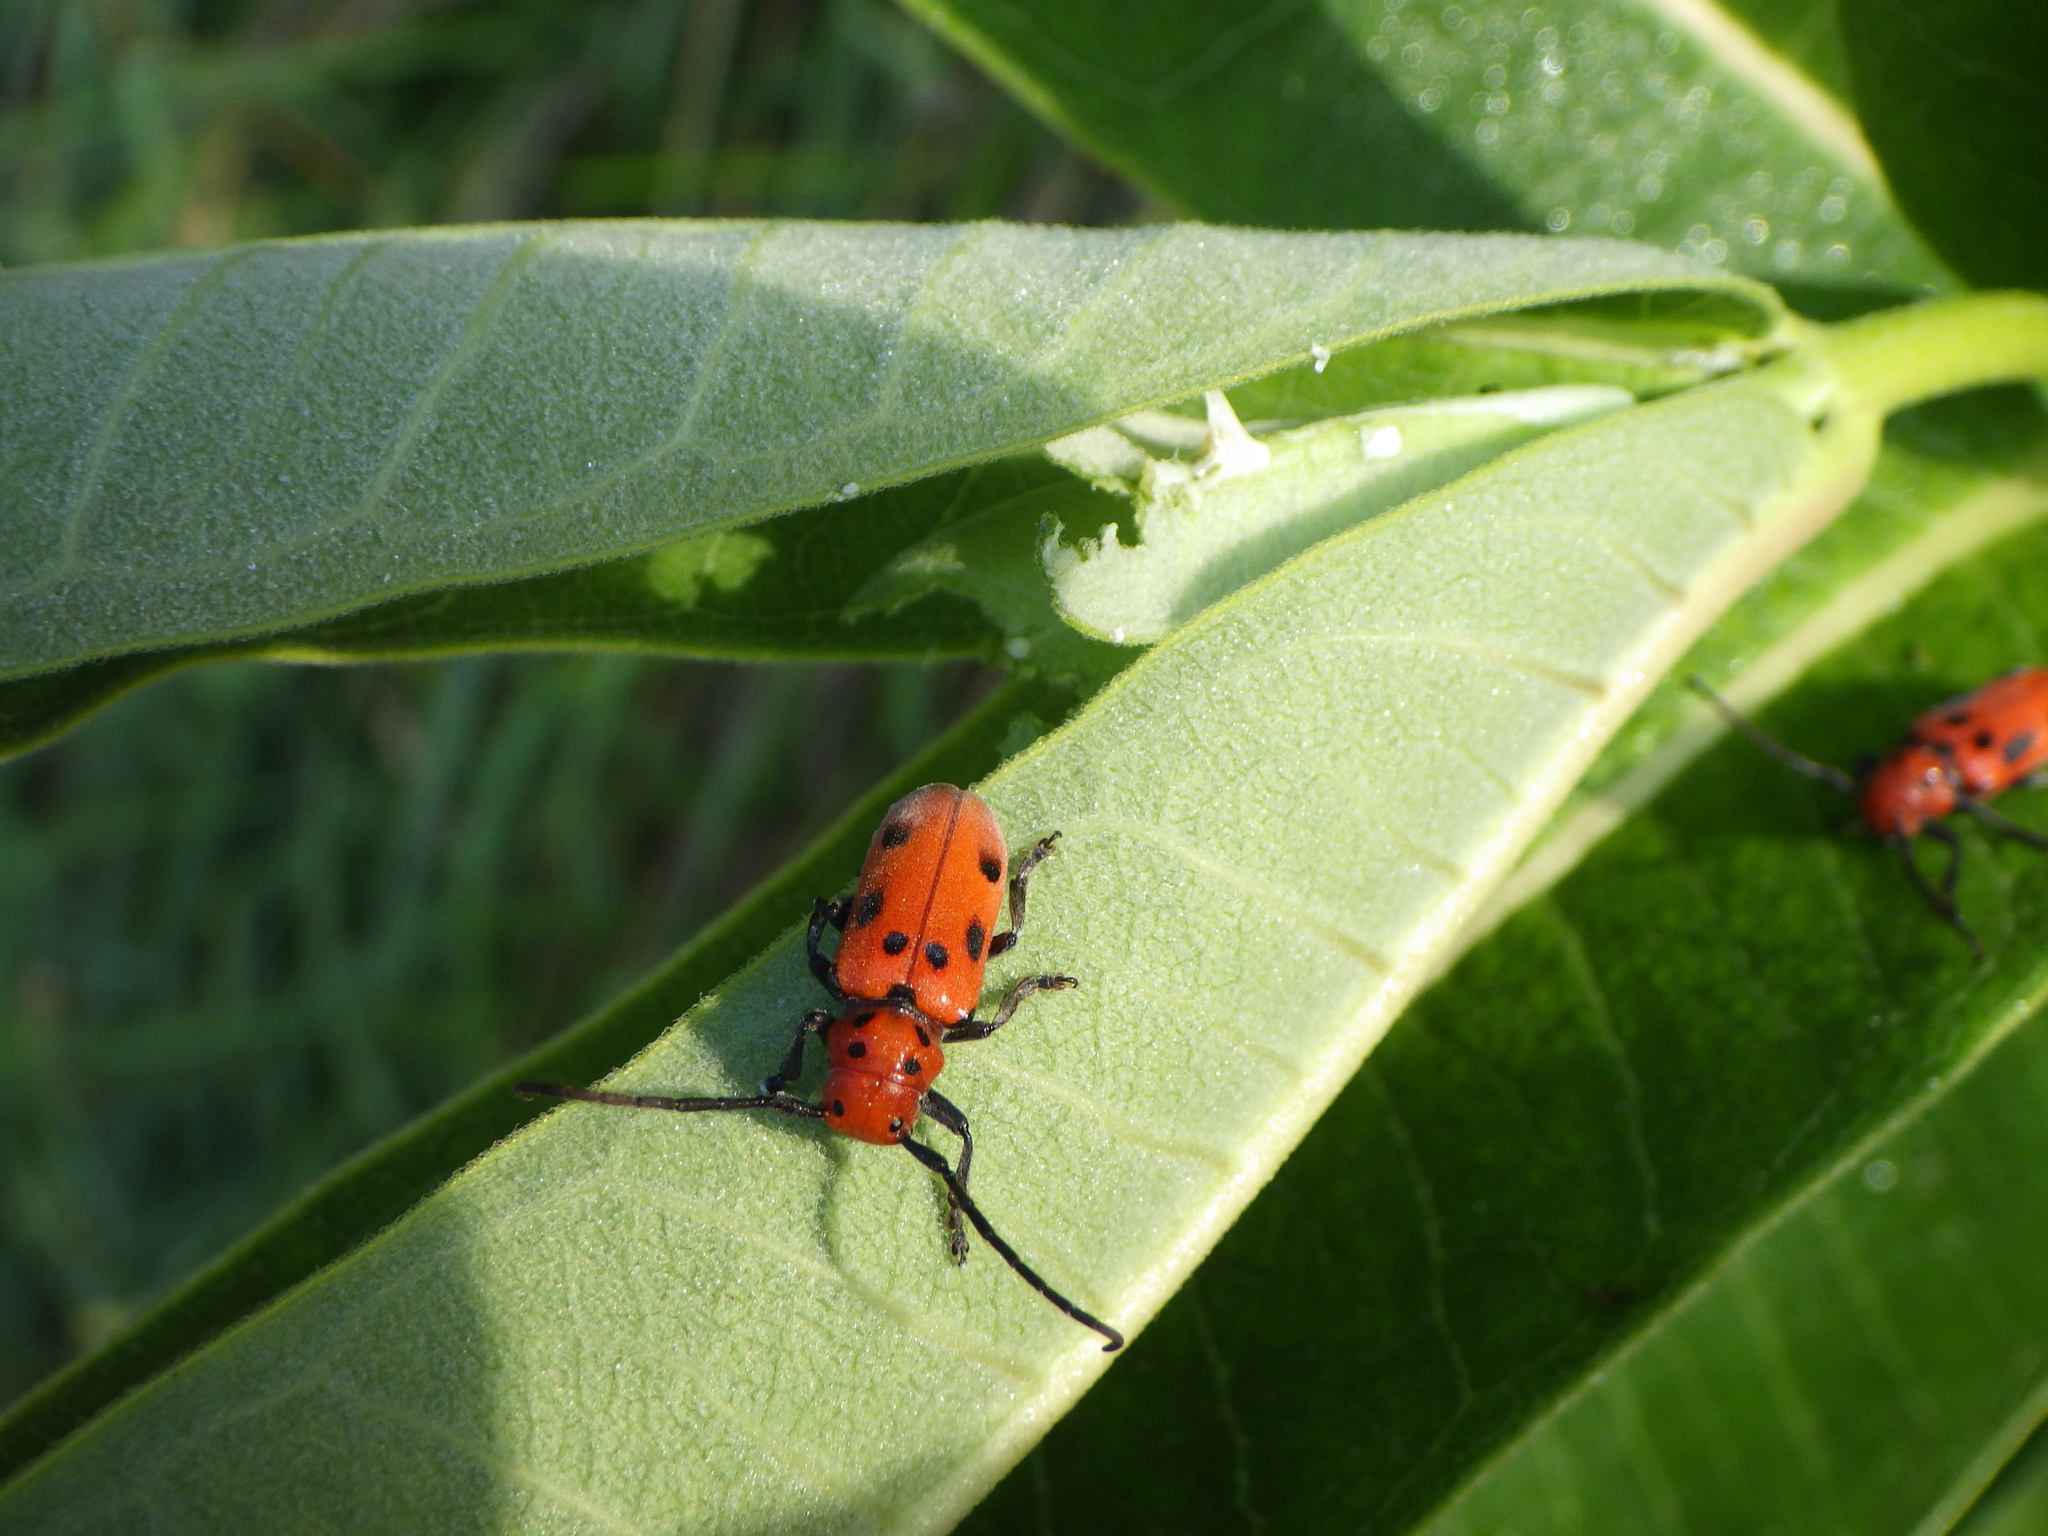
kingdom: Animalia
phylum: Arthropoda
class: Insecta
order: Coleoptera
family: Cerambycidae
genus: Tetraopes
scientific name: Tetraopes tetrophthalmus
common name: Red milkweed beetle
